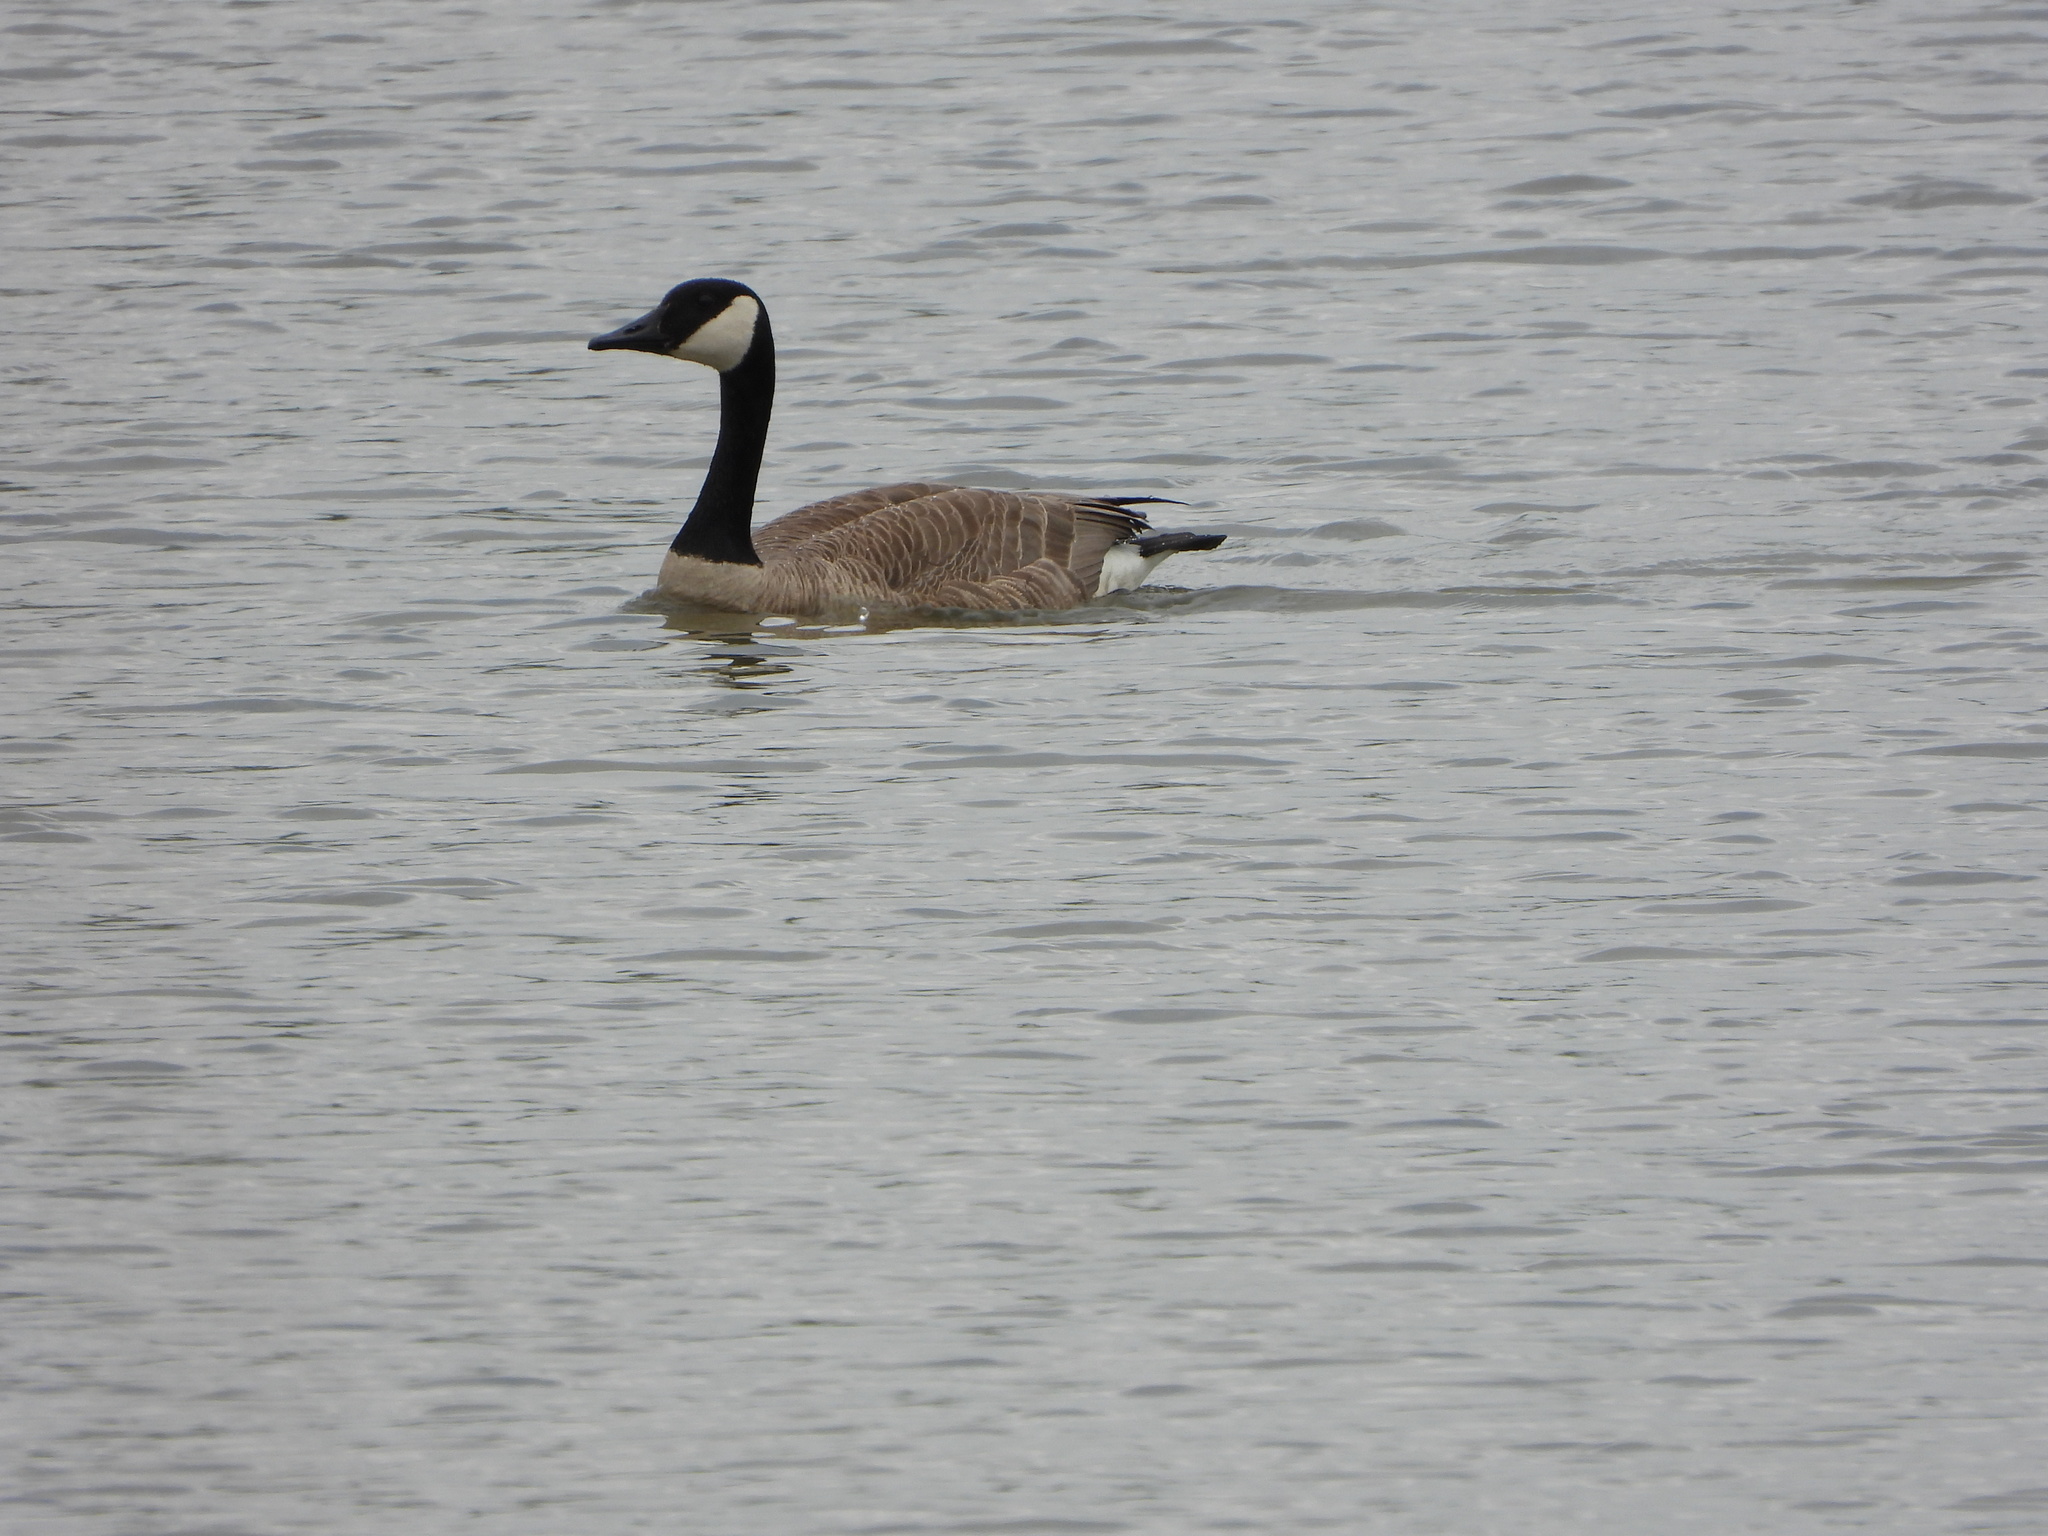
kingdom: Animalia
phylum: Chordata
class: Aves
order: Anseriformes
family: Anatidae
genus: Branta
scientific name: Branta canadensis
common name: Canada goose
